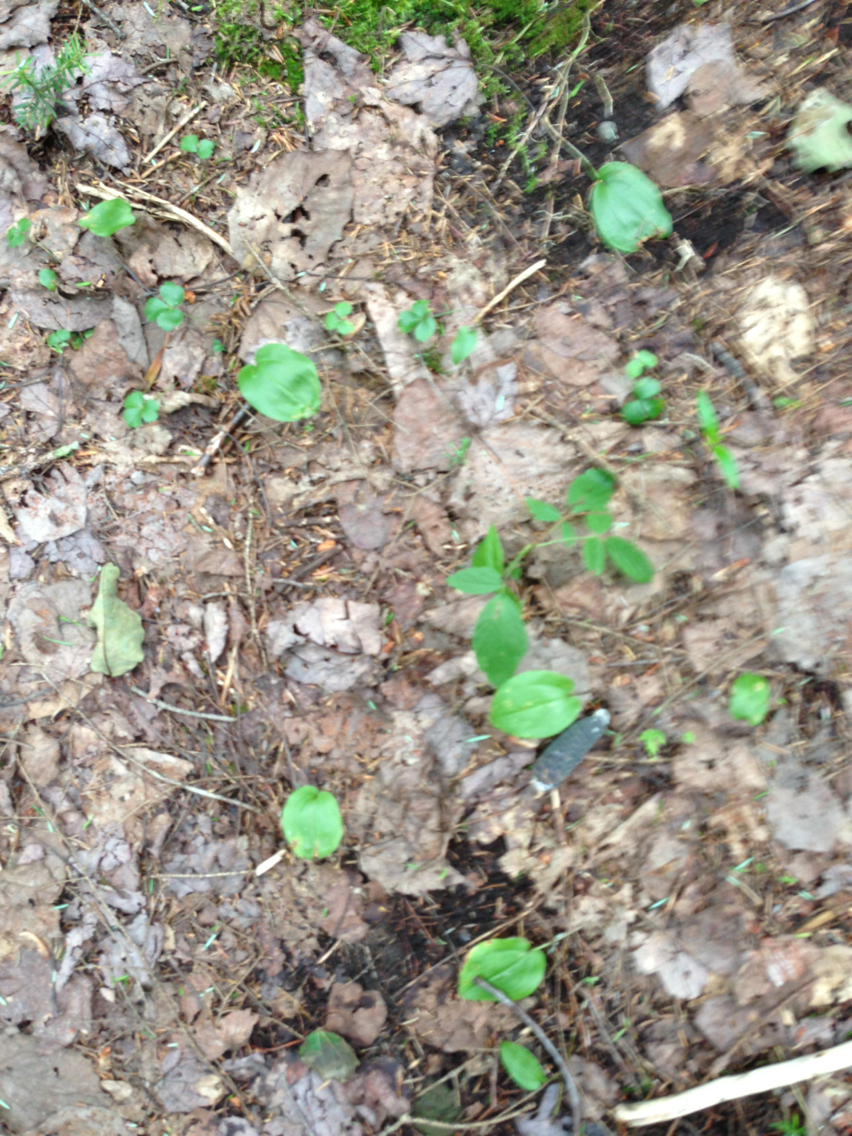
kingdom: Plantae
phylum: Tracheophyta
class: Liliopsida
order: Asparagales
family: Asparagaceae
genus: Maianthemum
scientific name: Maianthemum canadense
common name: False lily-of-the-valley
